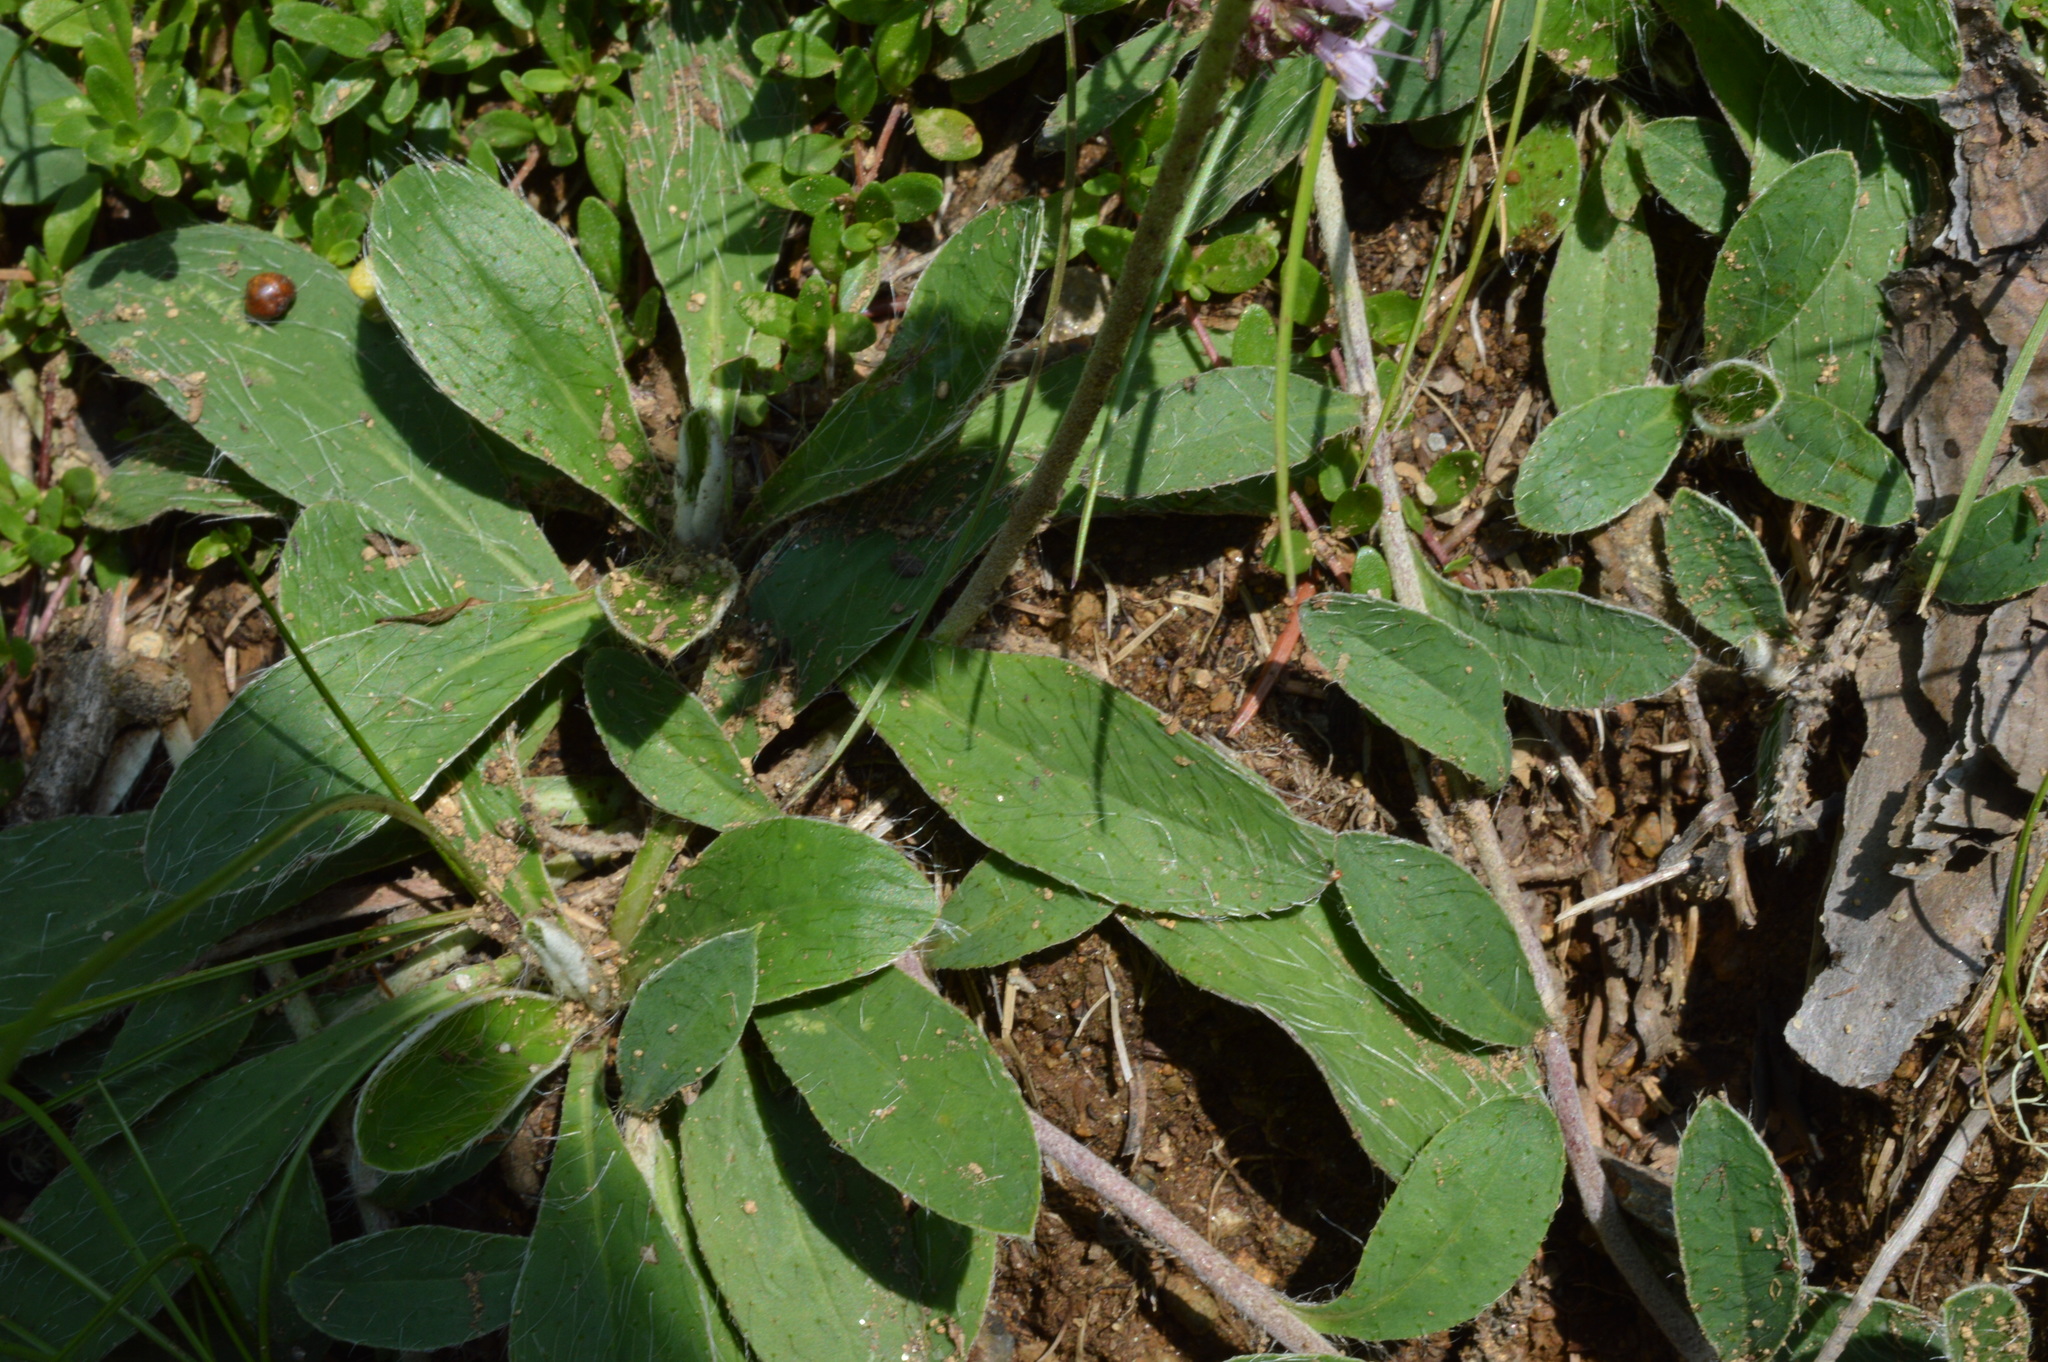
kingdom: Plantae
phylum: Tracheophyta
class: Magnoliopsida
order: Asterales
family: Asteraceae
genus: Pilosella
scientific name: Pilosella officinarum
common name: Mouse-ear hawkweed
